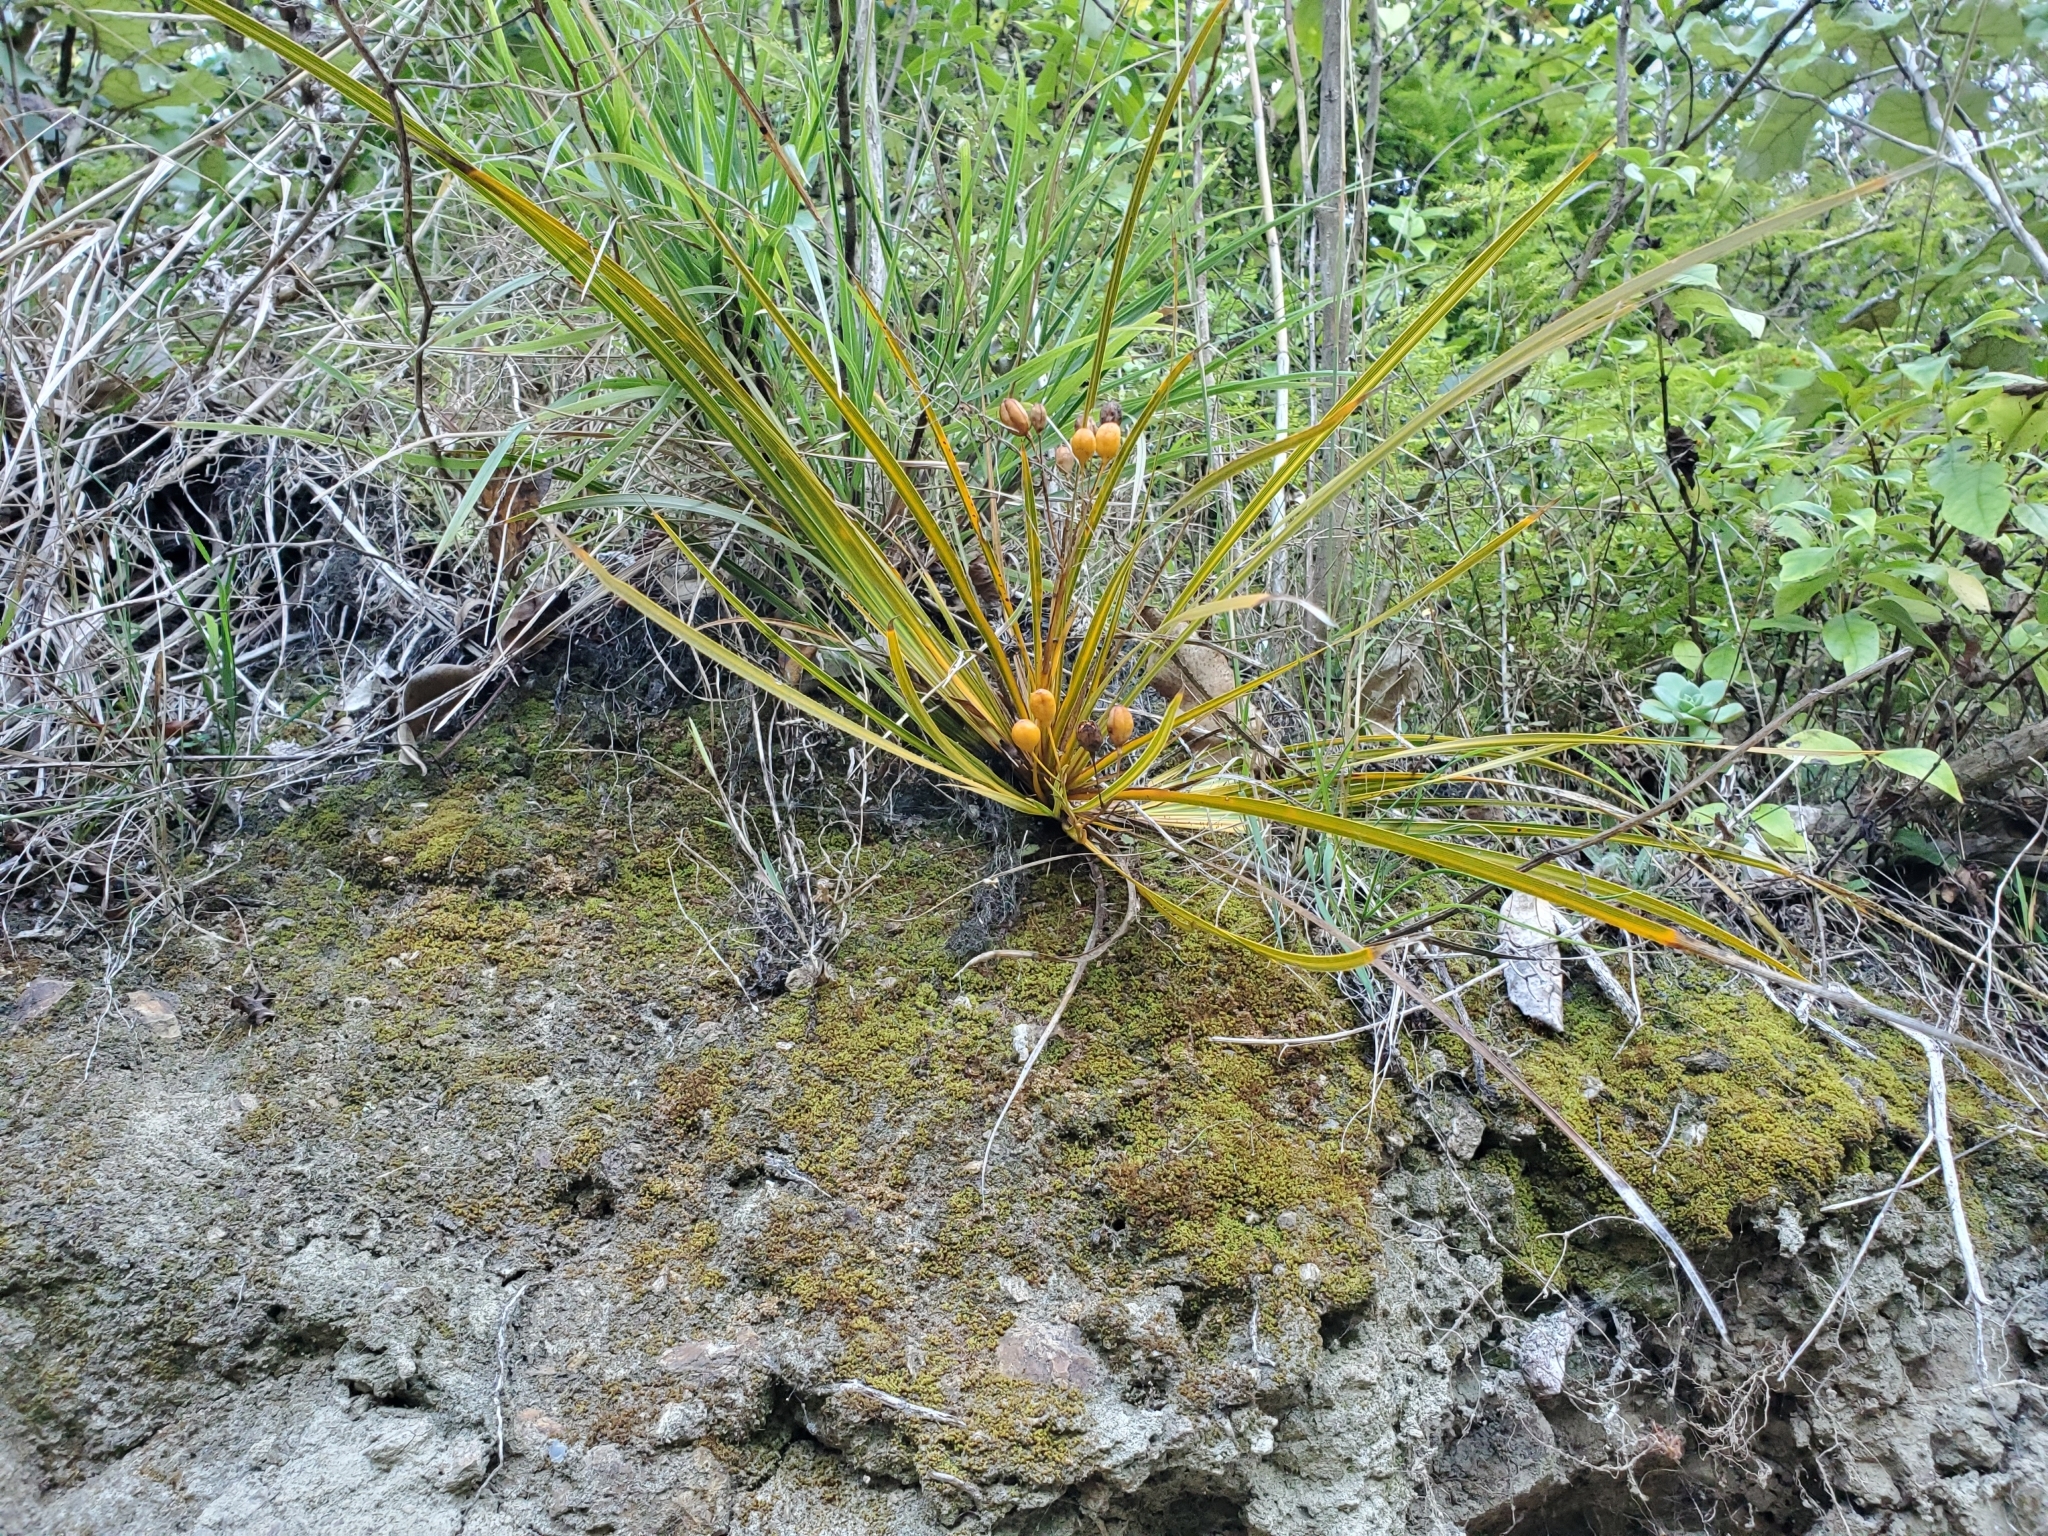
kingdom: Plantae
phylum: Tracheophyta
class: Liliopsida
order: Asparagales
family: Iridaceae
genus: Libertia
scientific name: Libertia ixioides
